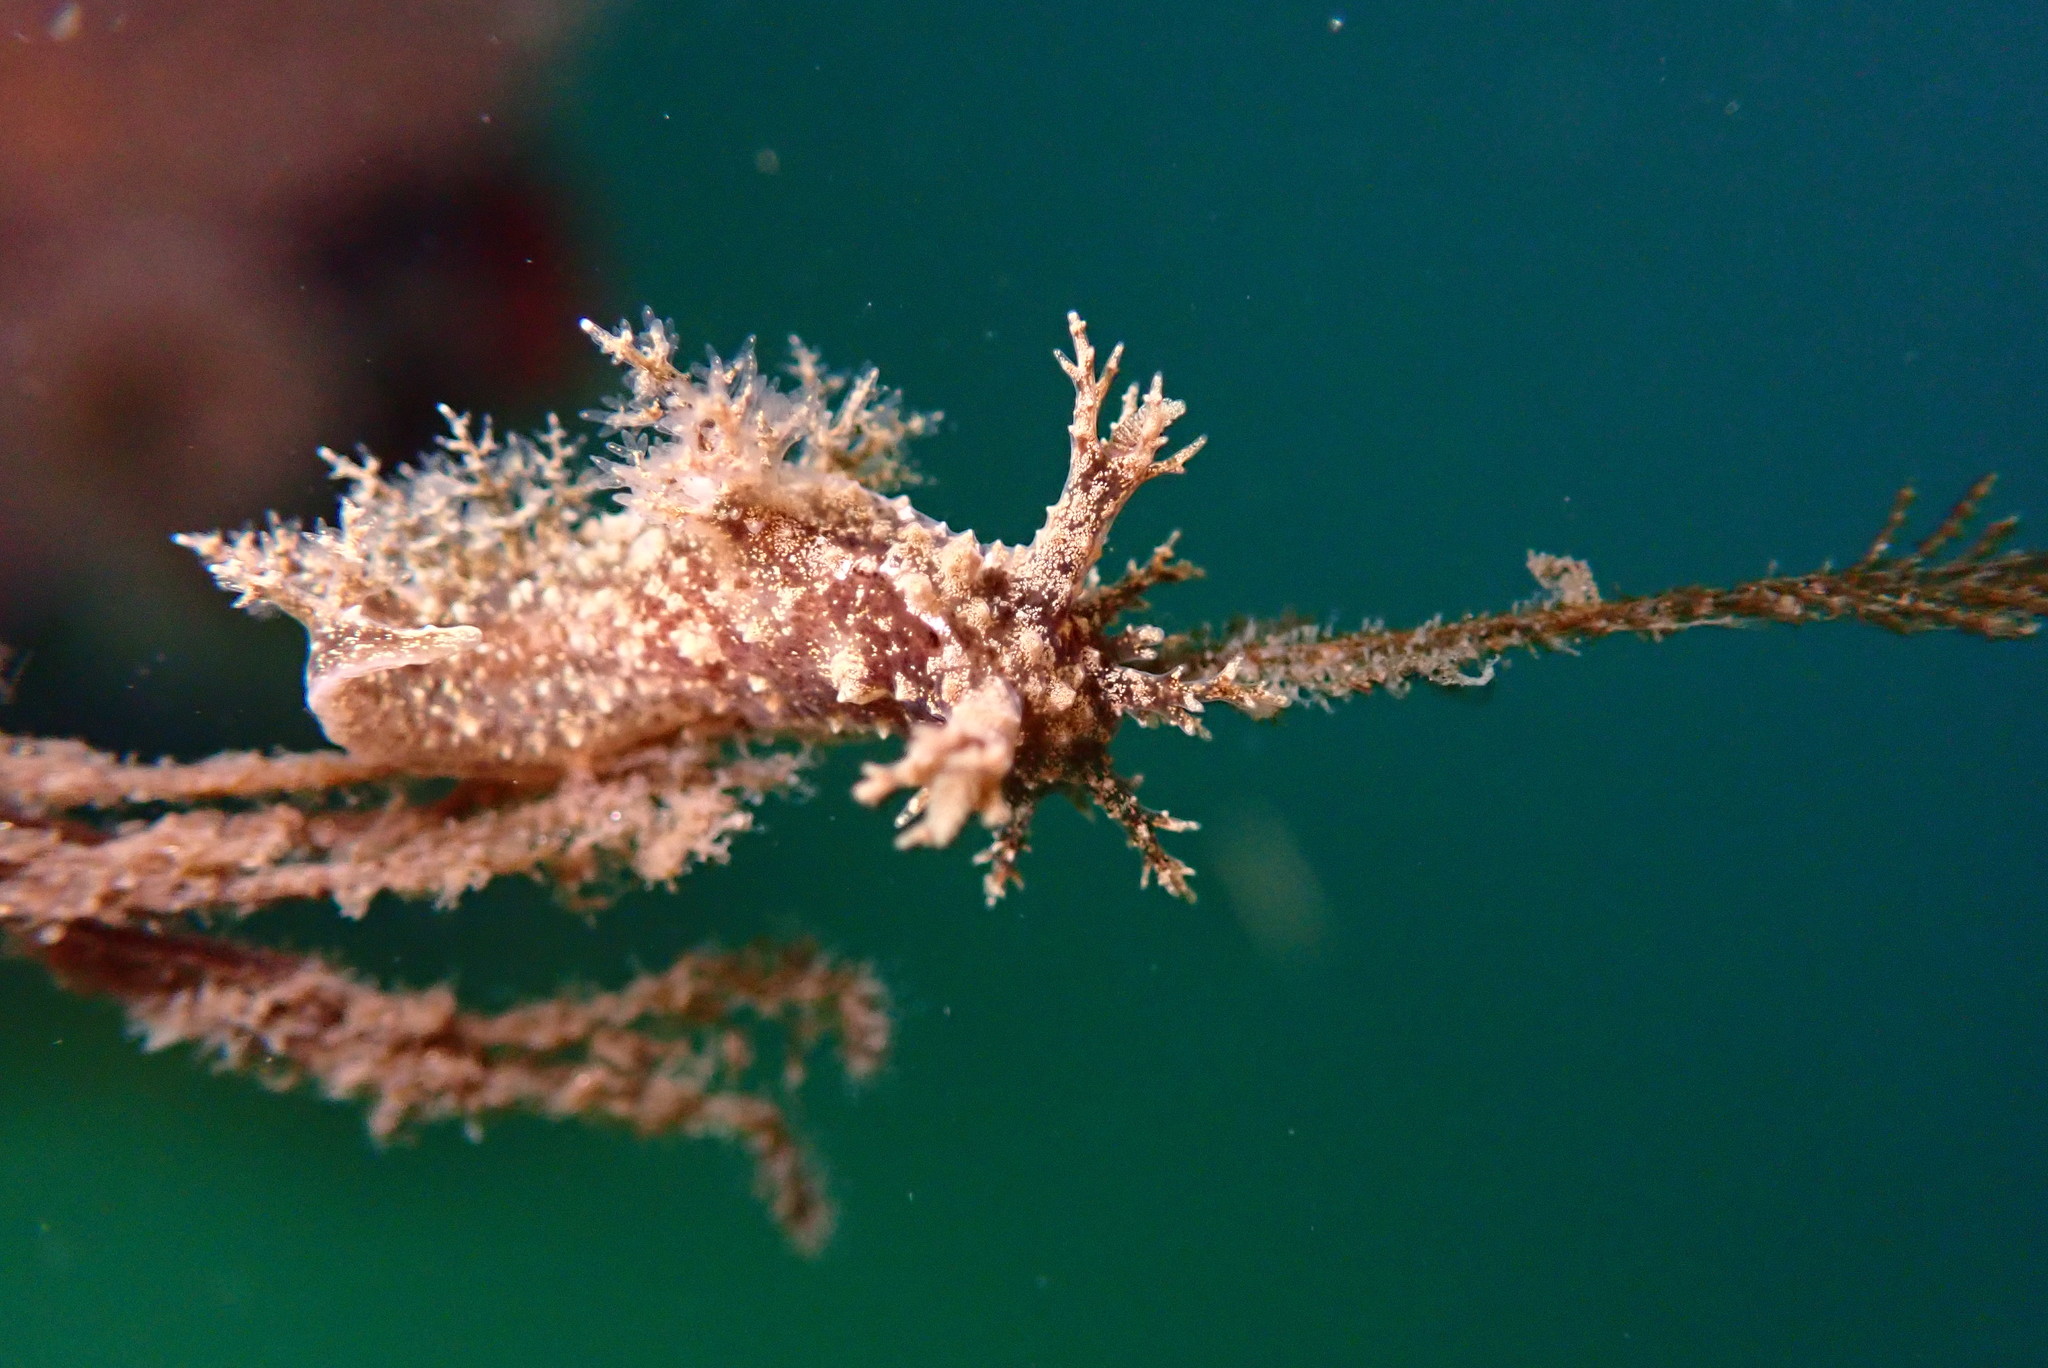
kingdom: Animalia
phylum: Mollusca
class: Gastropoda
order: Nudibranchia
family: Dendronotidae
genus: Dendronotus
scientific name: Dendronotus venustus
